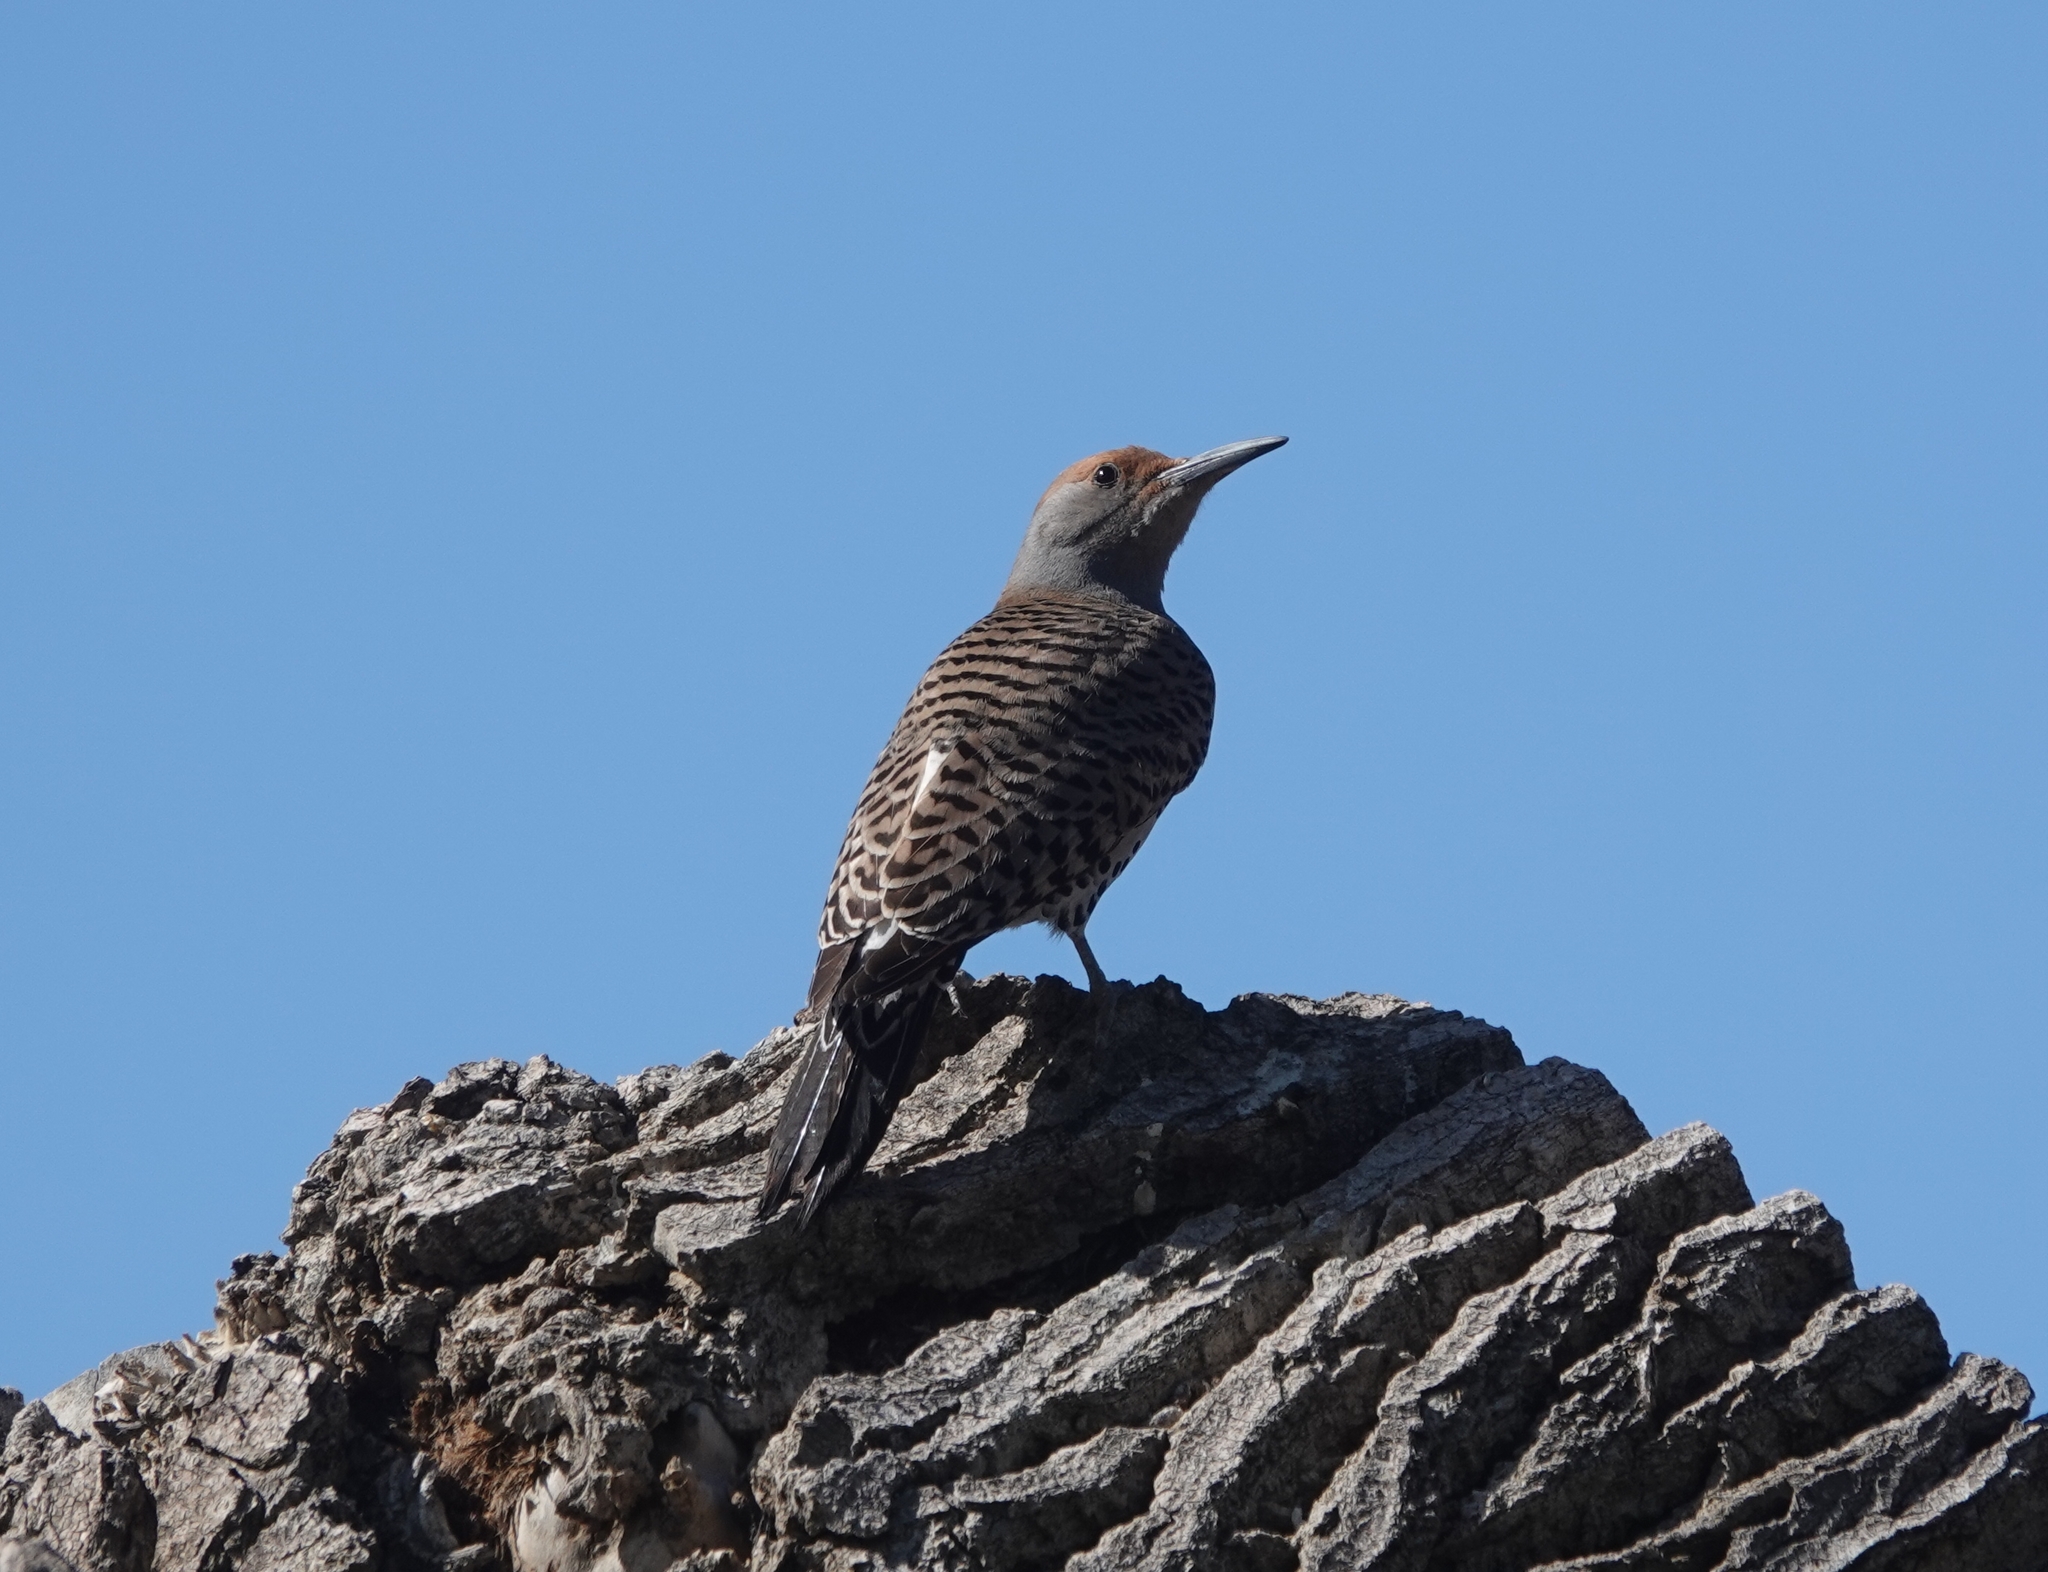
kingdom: Animalia
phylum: Chordata
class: Aves
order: Piciformes
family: Picidae
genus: Colaptes
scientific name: Colaptes auratus
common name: Northern flicker
